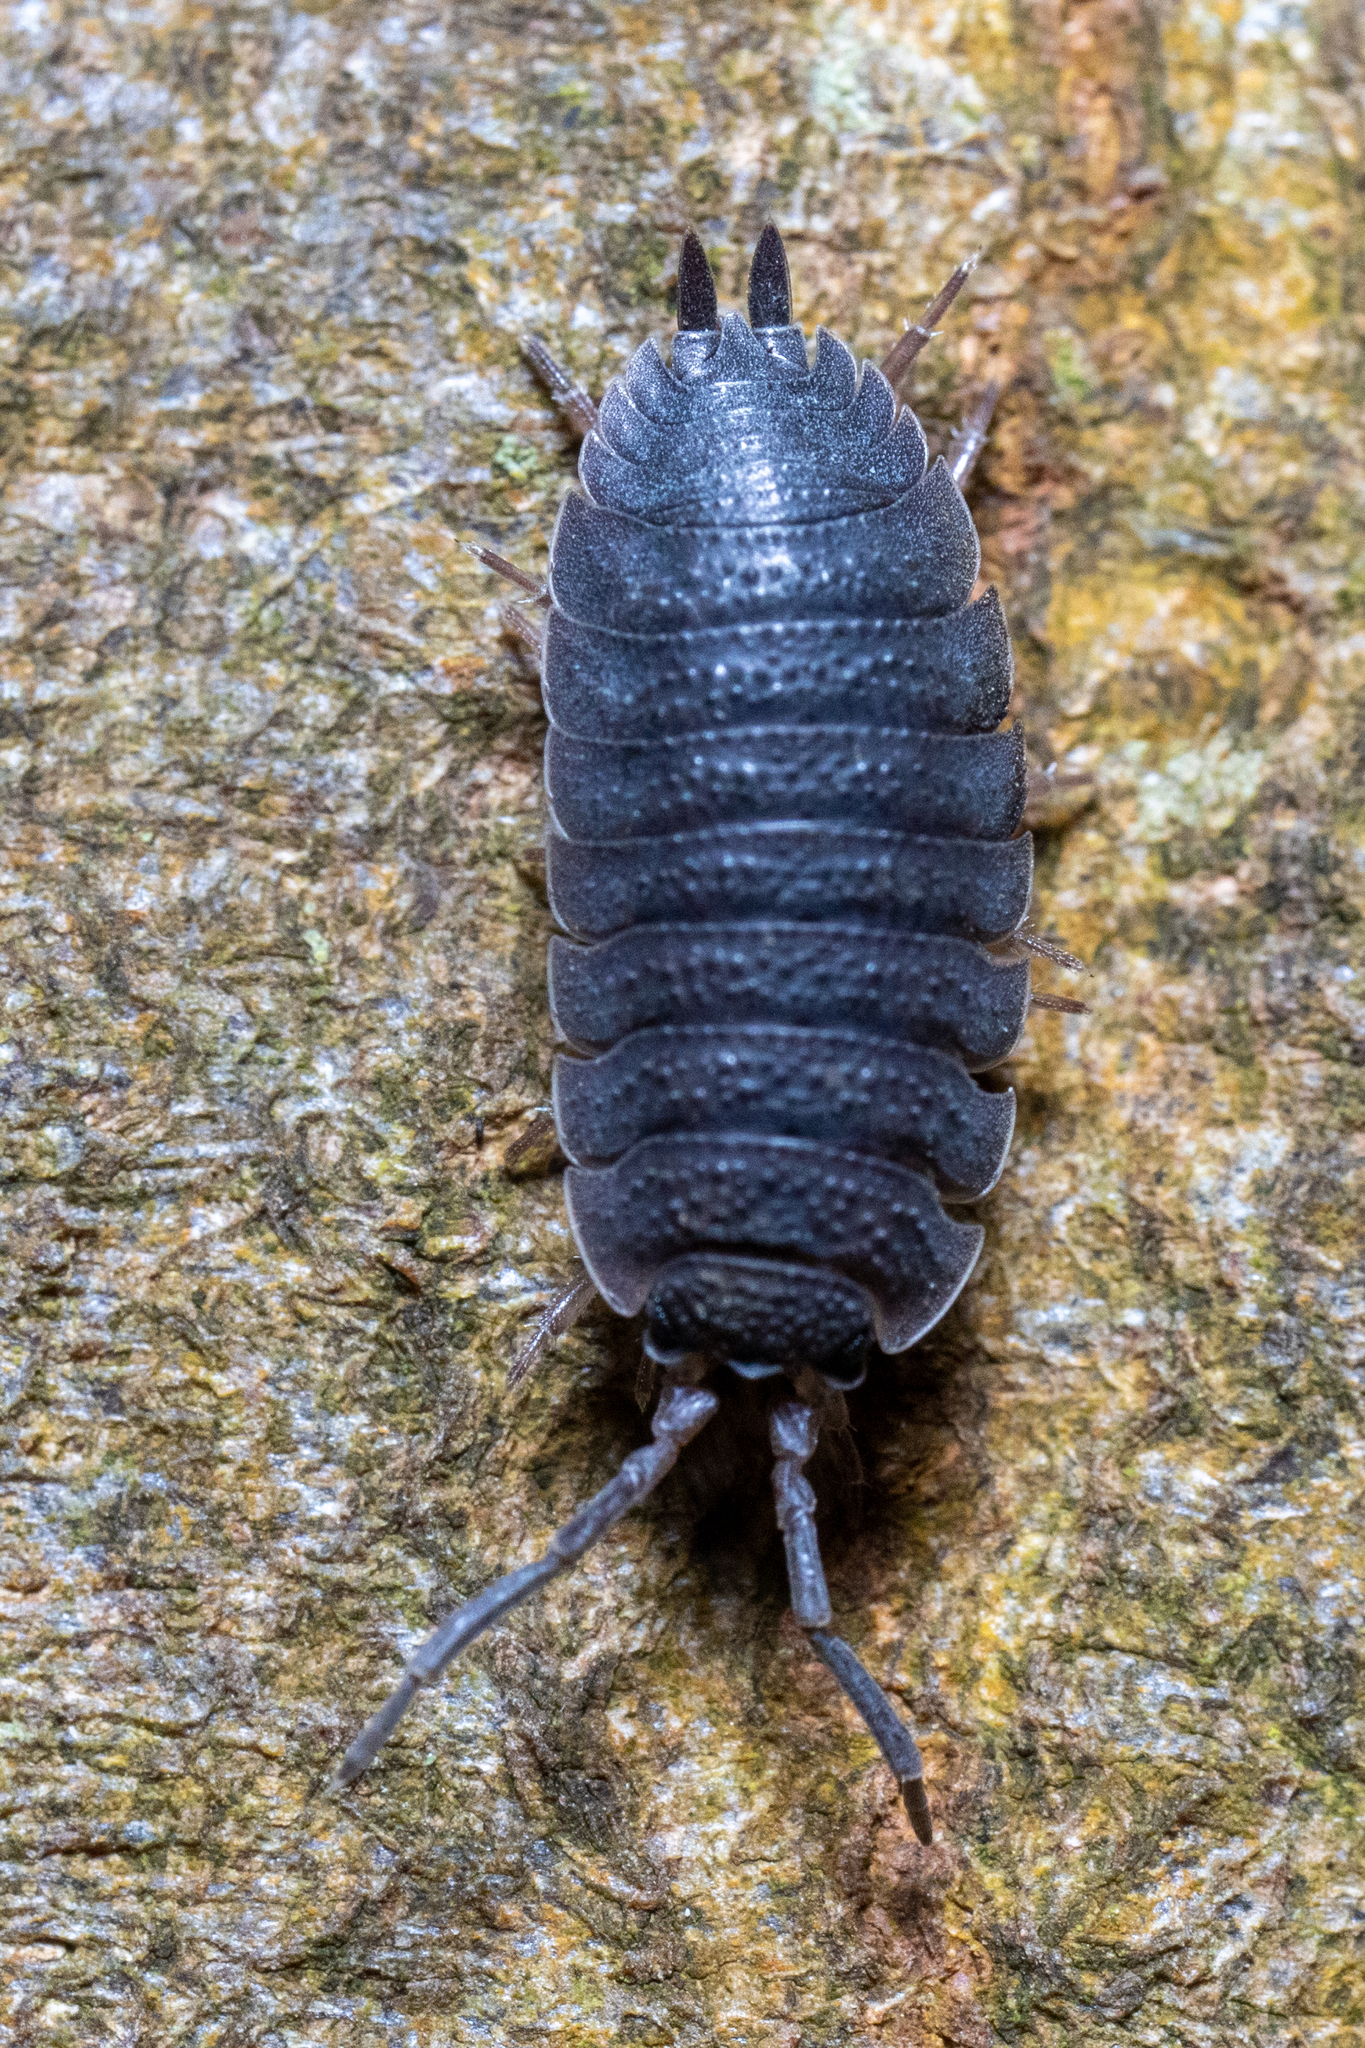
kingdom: Animalia
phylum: Arthropoda
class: Malacostraca
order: Isopoda
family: Porcellionidae
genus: Porcellio
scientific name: Porcellio scaber
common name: Common rough woodlouse
